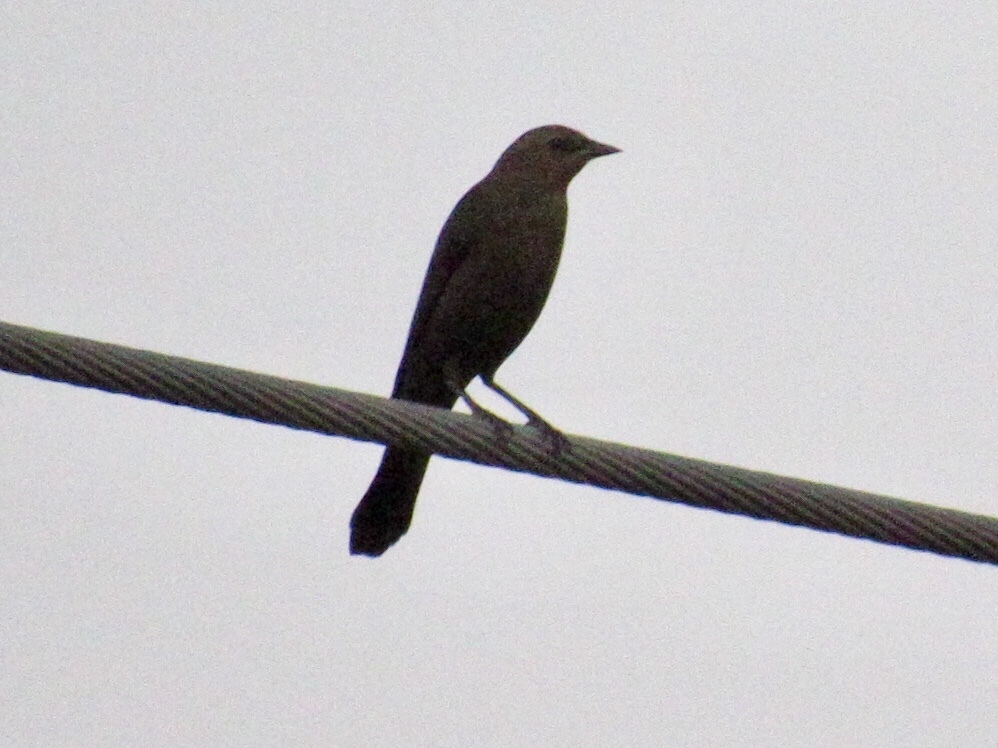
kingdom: Animalia
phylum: Chordata
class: Aves
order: Passeriformes
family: Icteridae
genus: Euphagus
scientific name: Euphagus cyanocephalus
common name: Brewer's blackbird
